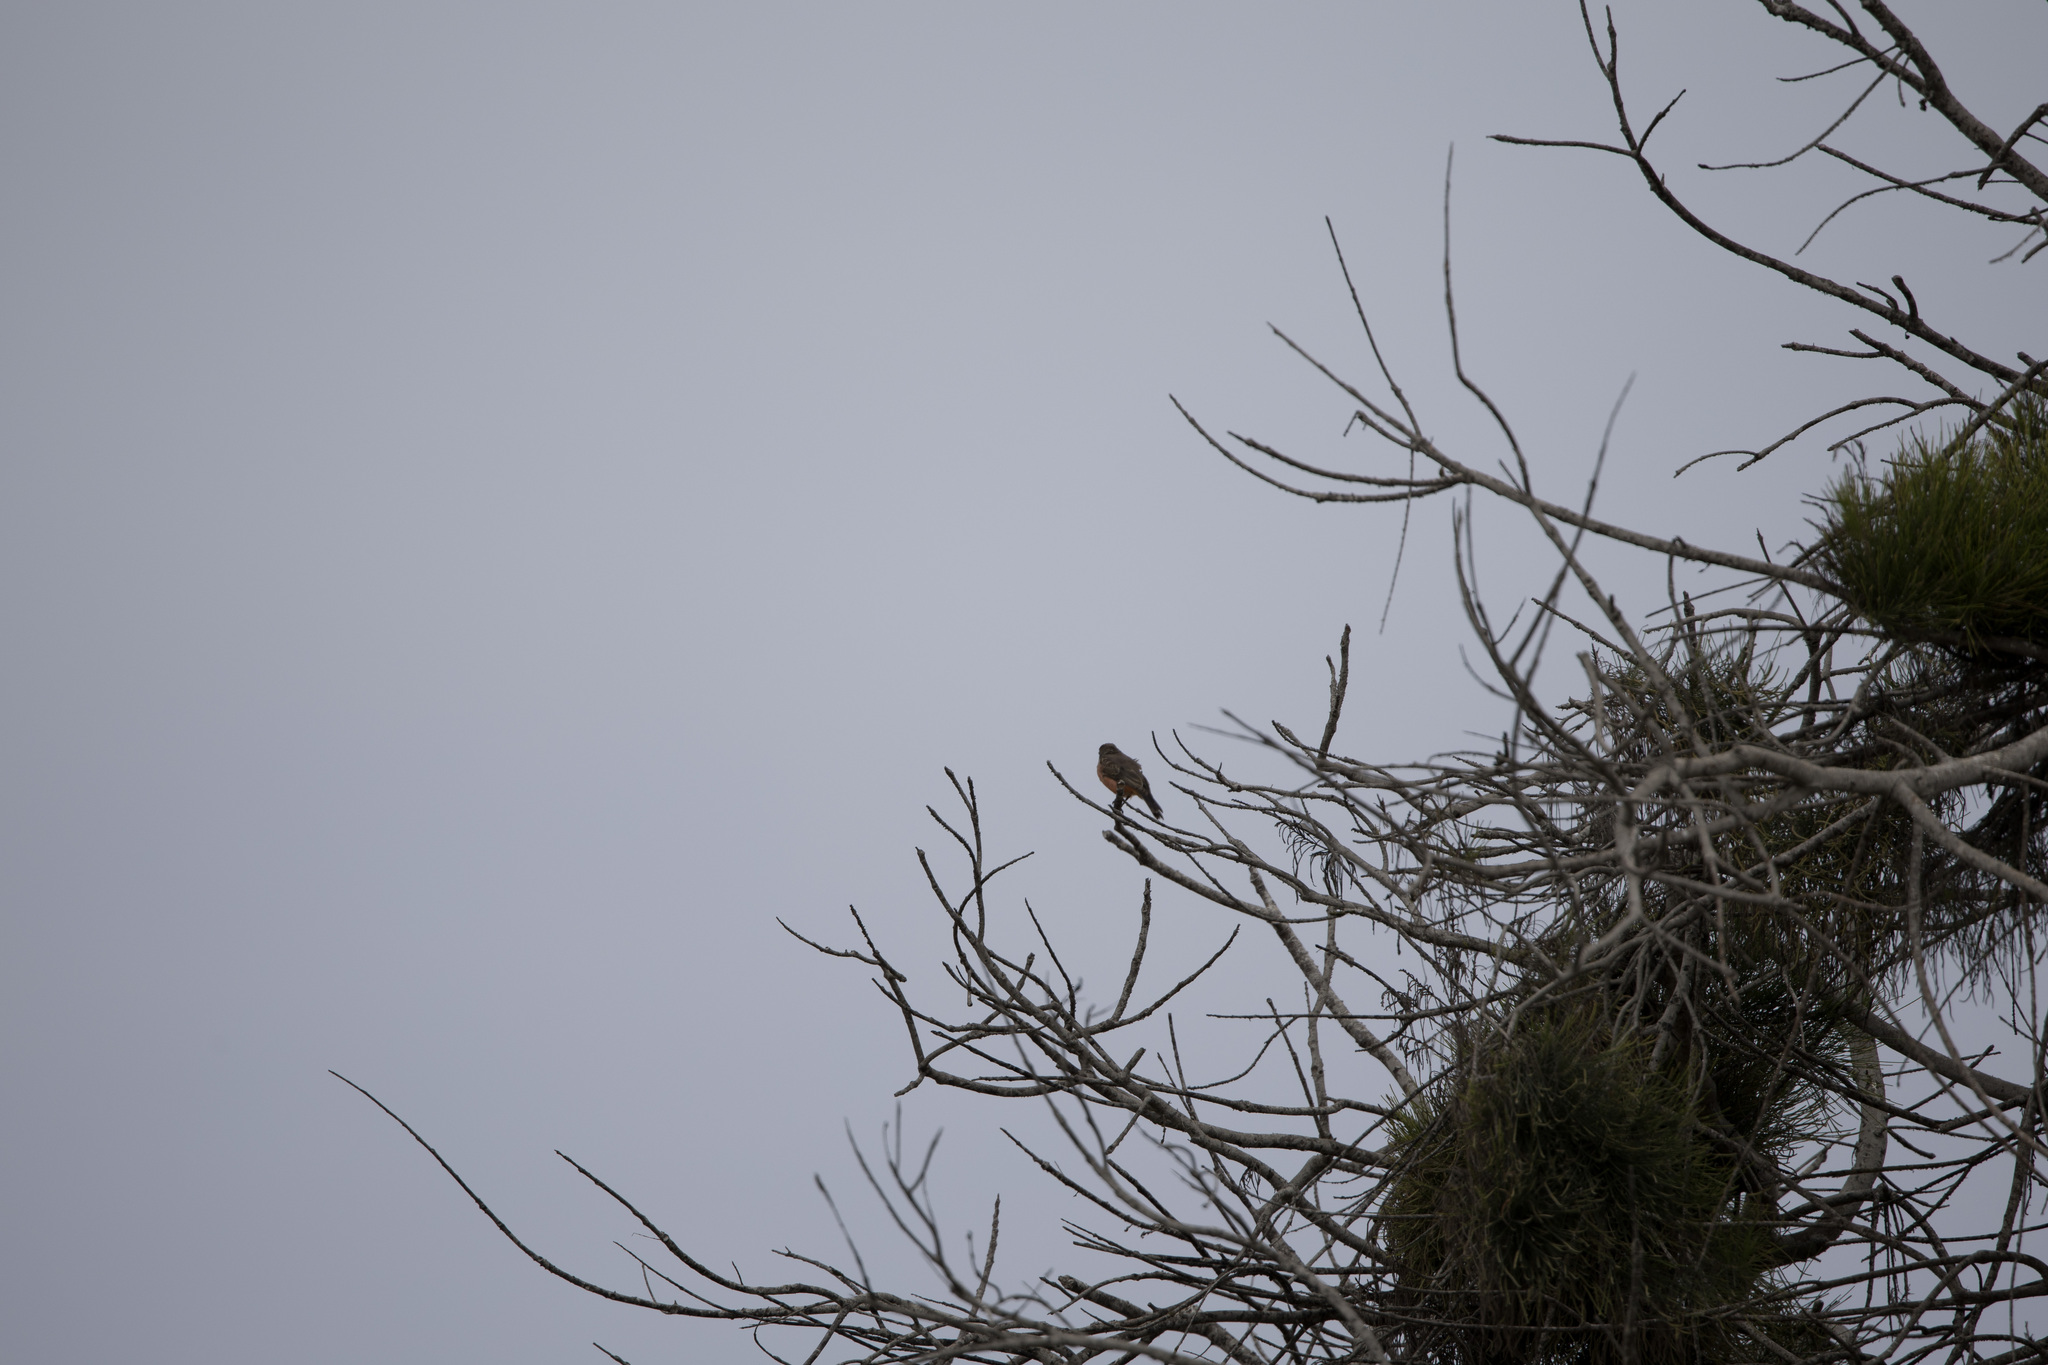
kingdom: Animalia
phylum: Chordata
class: Aves
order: Passeriformes
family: Tyrannidae
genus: Pyrocephalus
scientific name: Pyrocephalus rubinus
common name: Vermilion flycatcher
